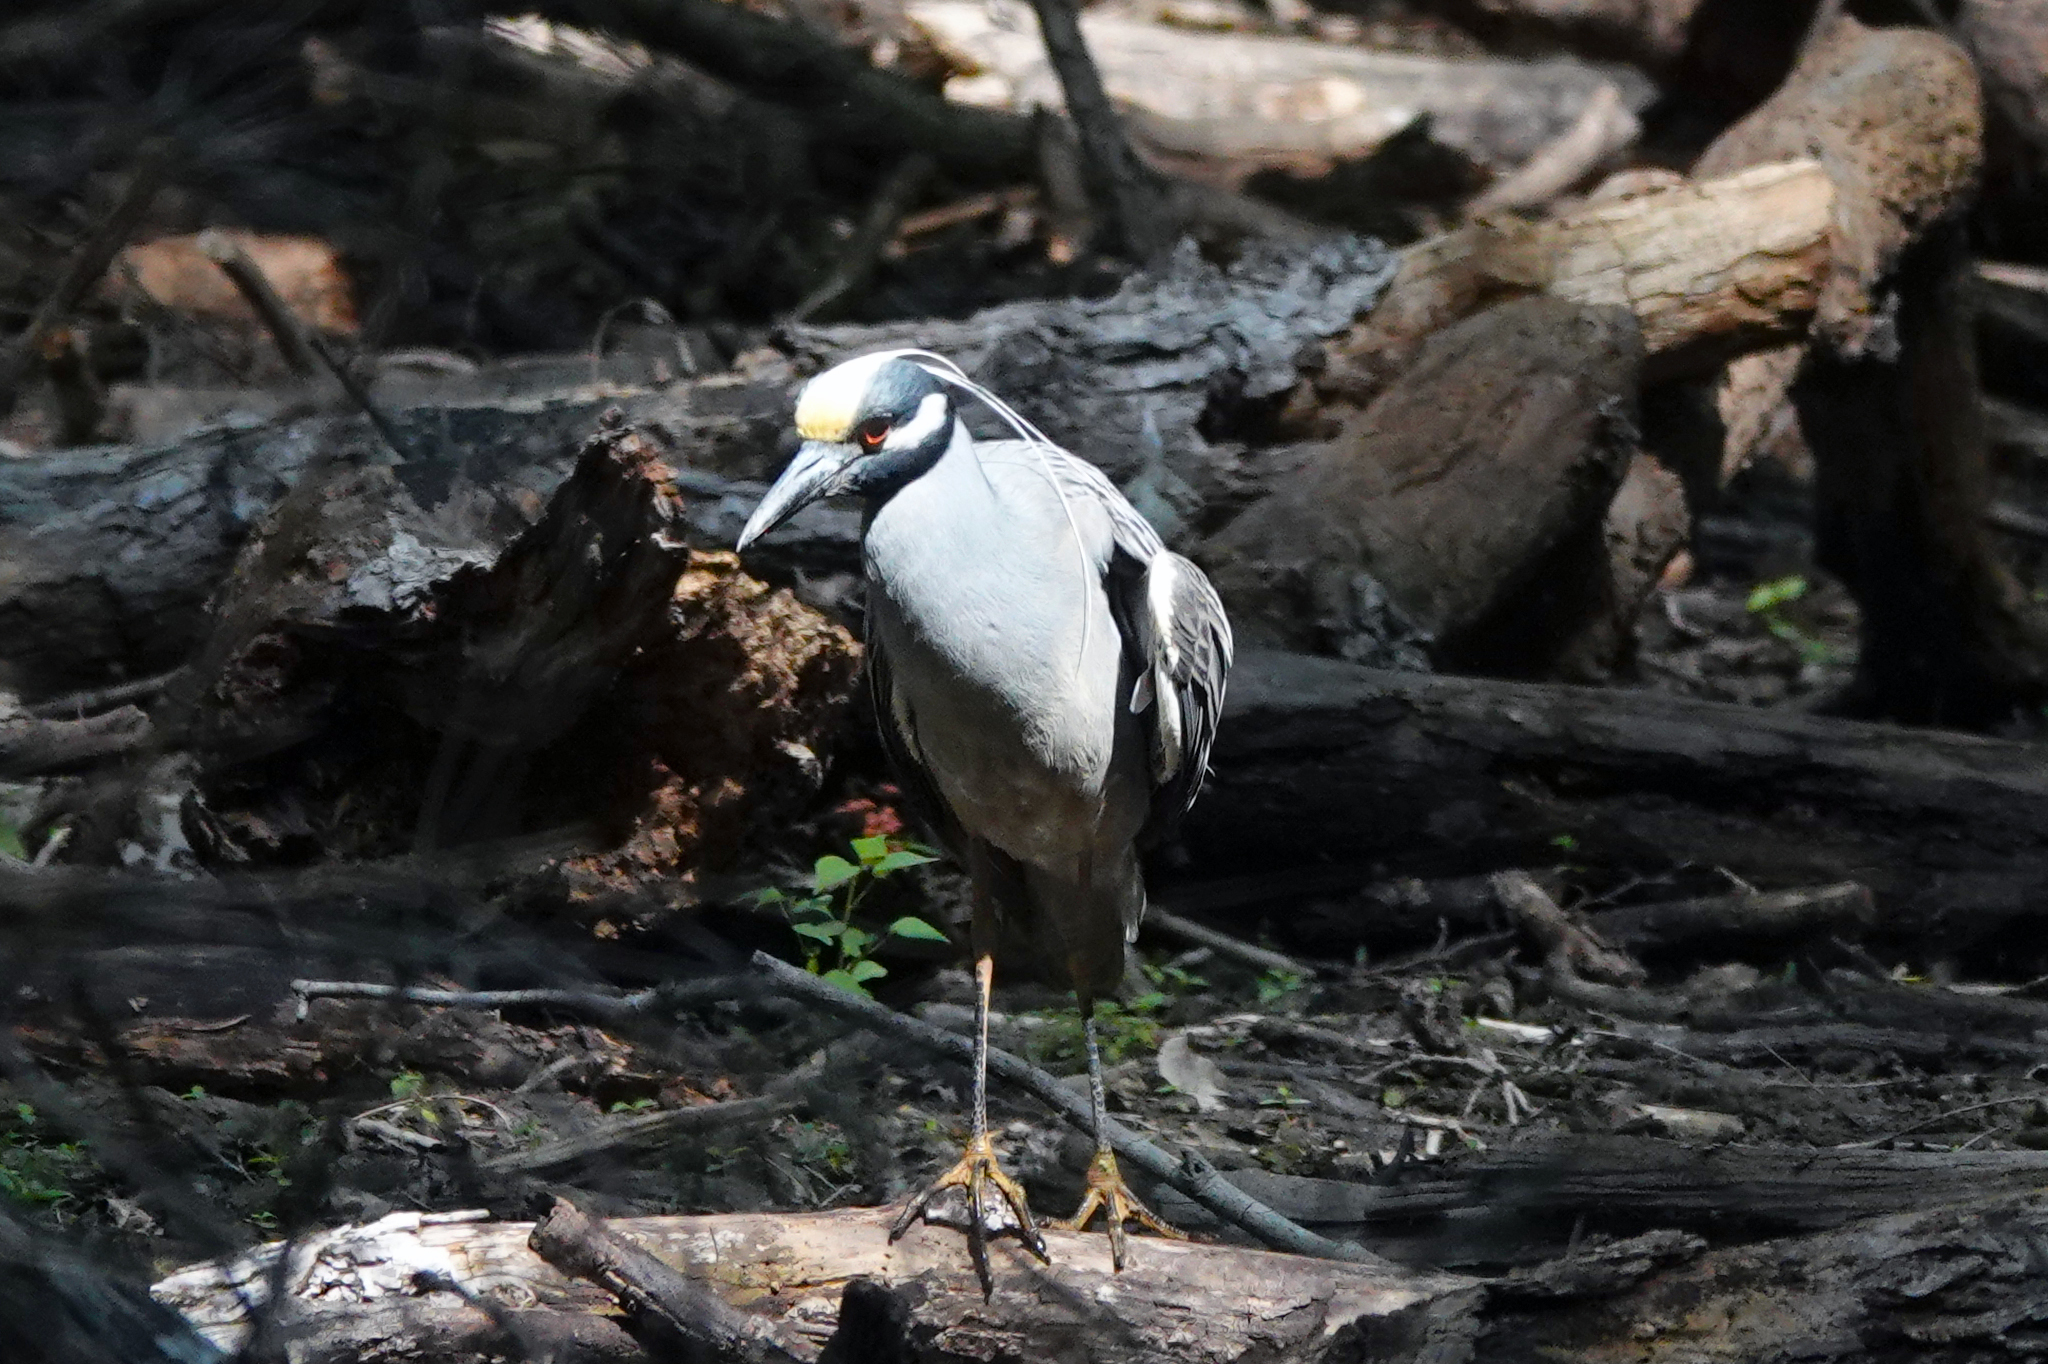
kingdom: Animalia
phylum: Chordata
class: Aves
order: Pelecaniformes
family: Ardeidae
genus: Nyctanassa
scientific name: Nyctanassa violacea
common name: Yellow-crowned night heron
